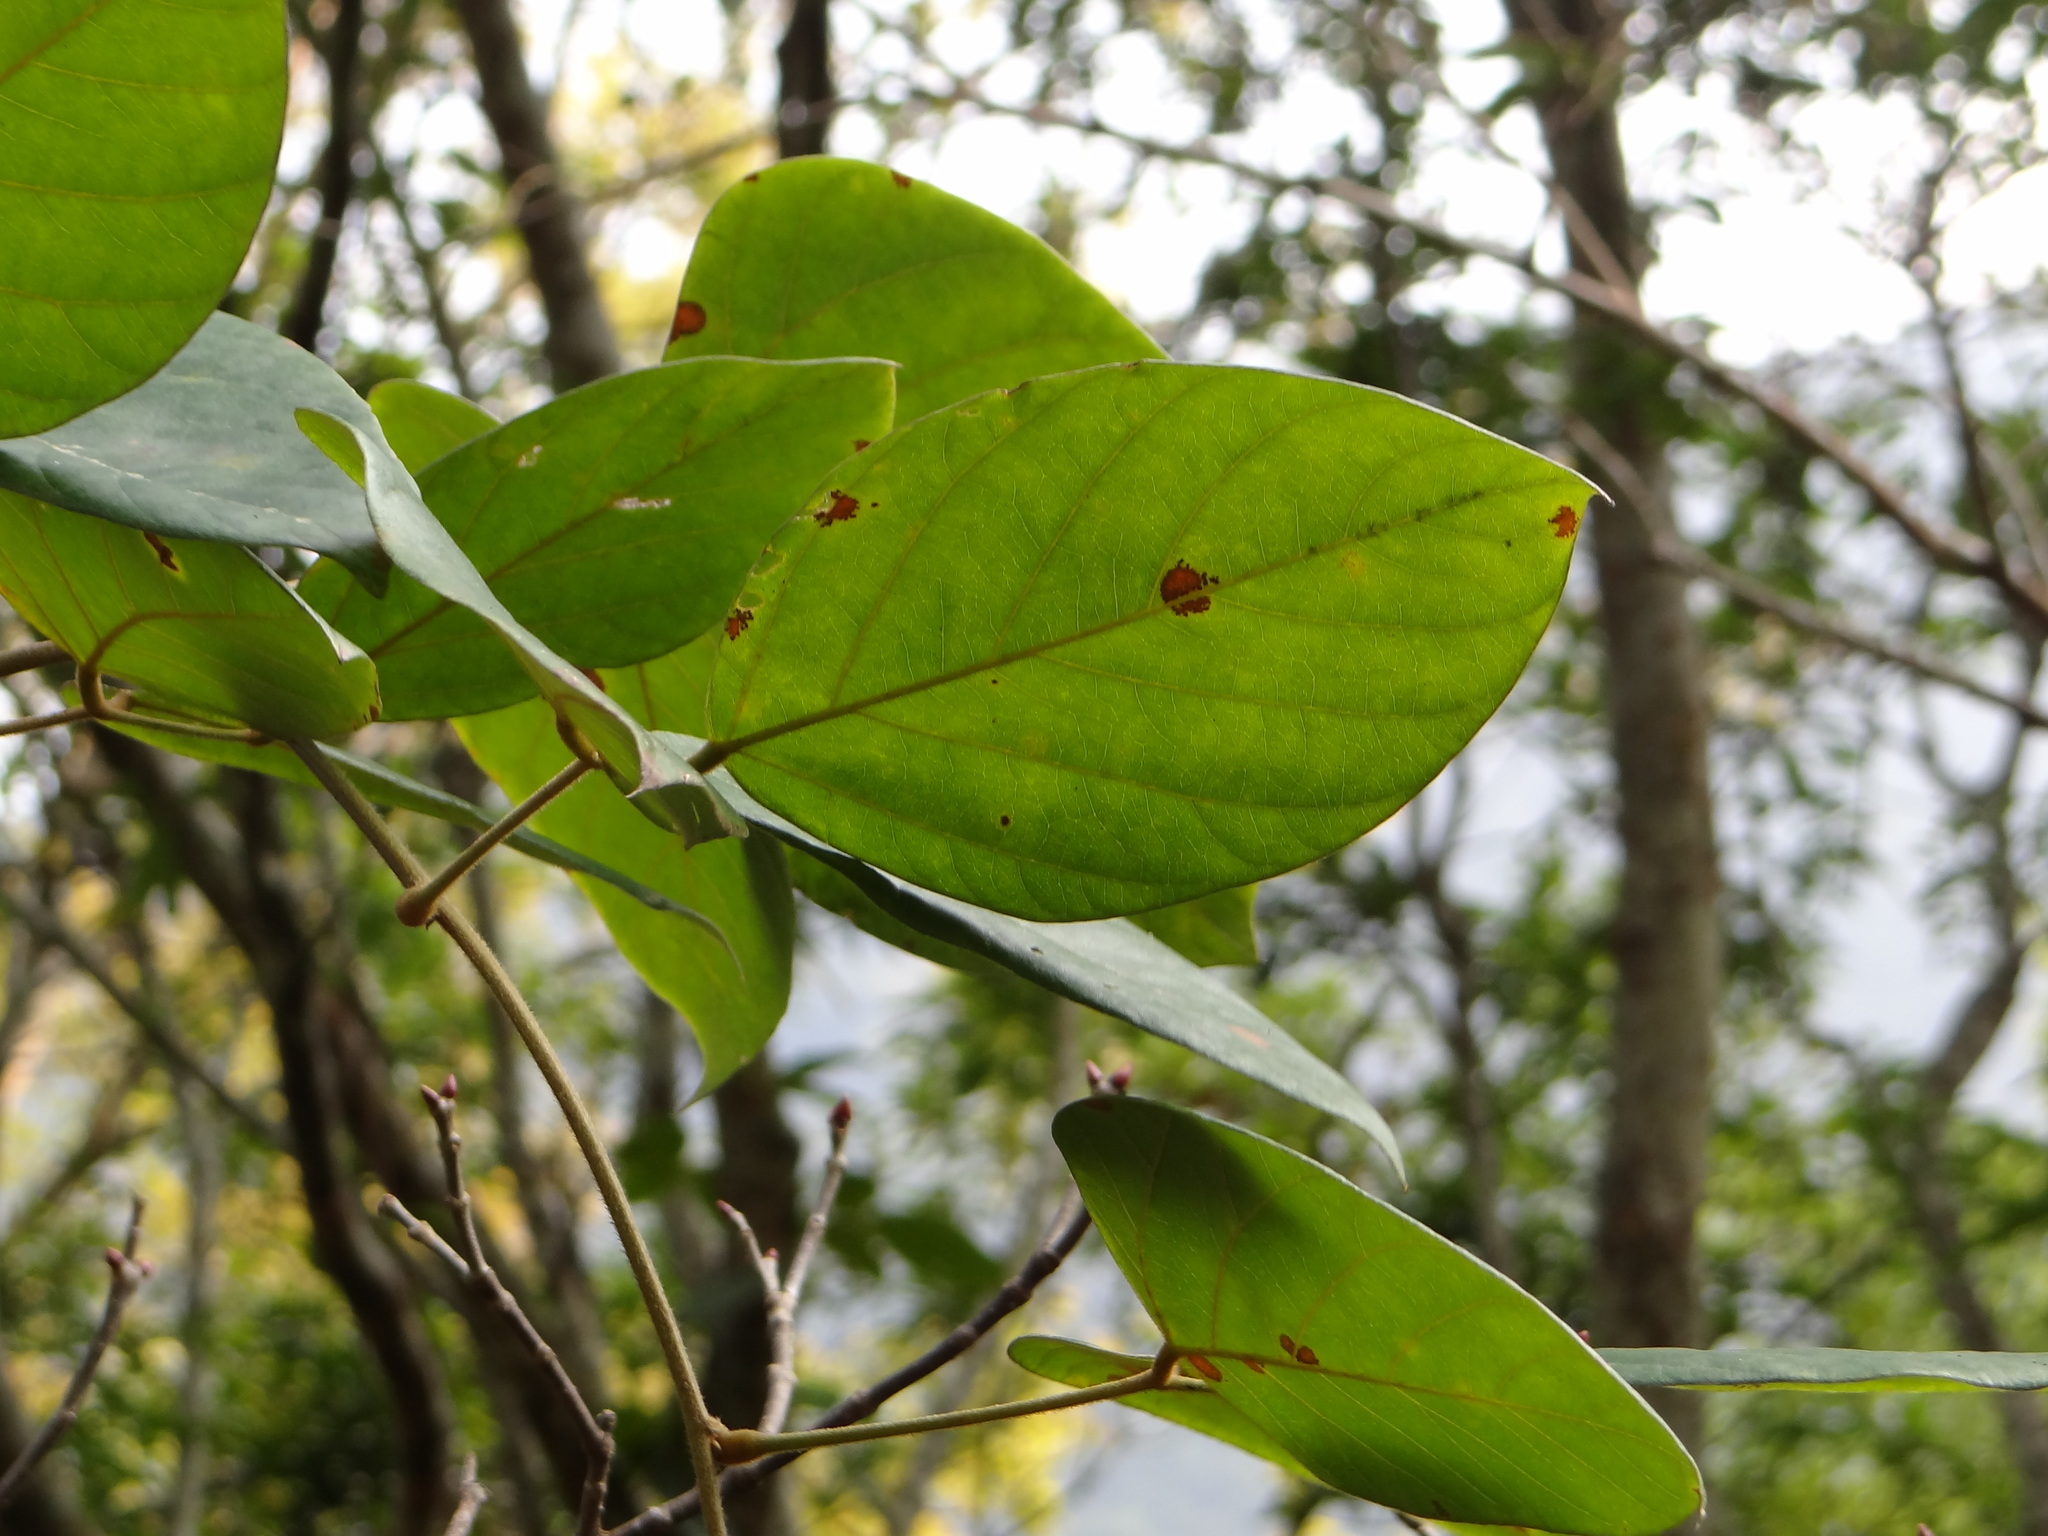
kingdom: Plantae
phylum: Tracheophyta
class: Magnoliopsida
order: Fabales
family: Fabaceae
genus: Mucuna
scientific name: Mucuna macrocarpa
